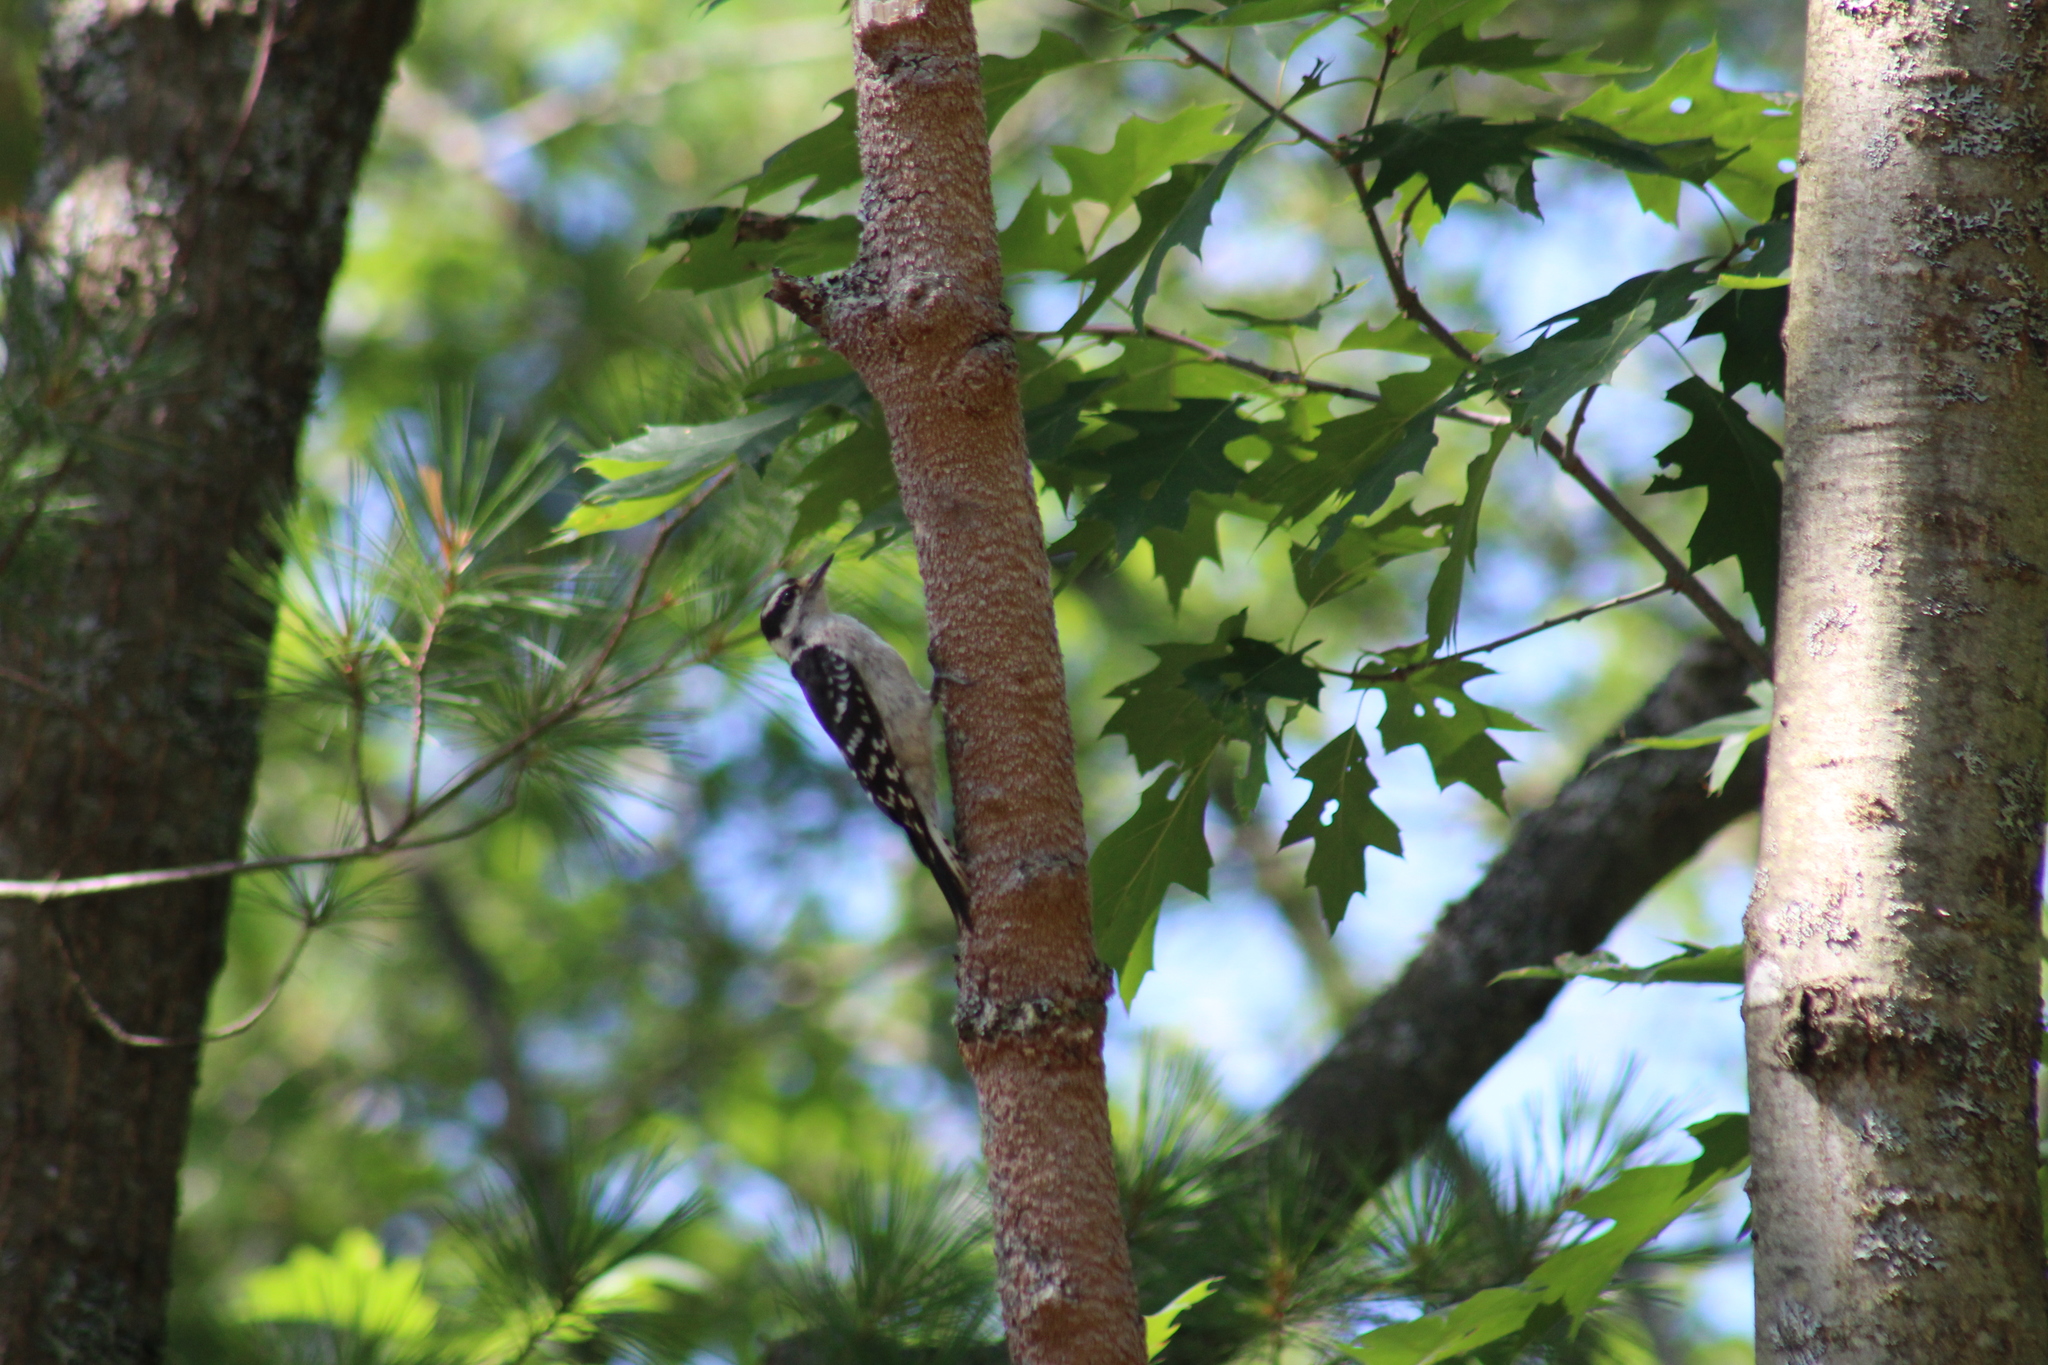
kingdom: Animalia
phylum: Chordata
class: Aves
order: Piciformes
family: Picidae
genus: Dryobates
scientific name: Dryobates pubescens
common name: Downy woodpecker
